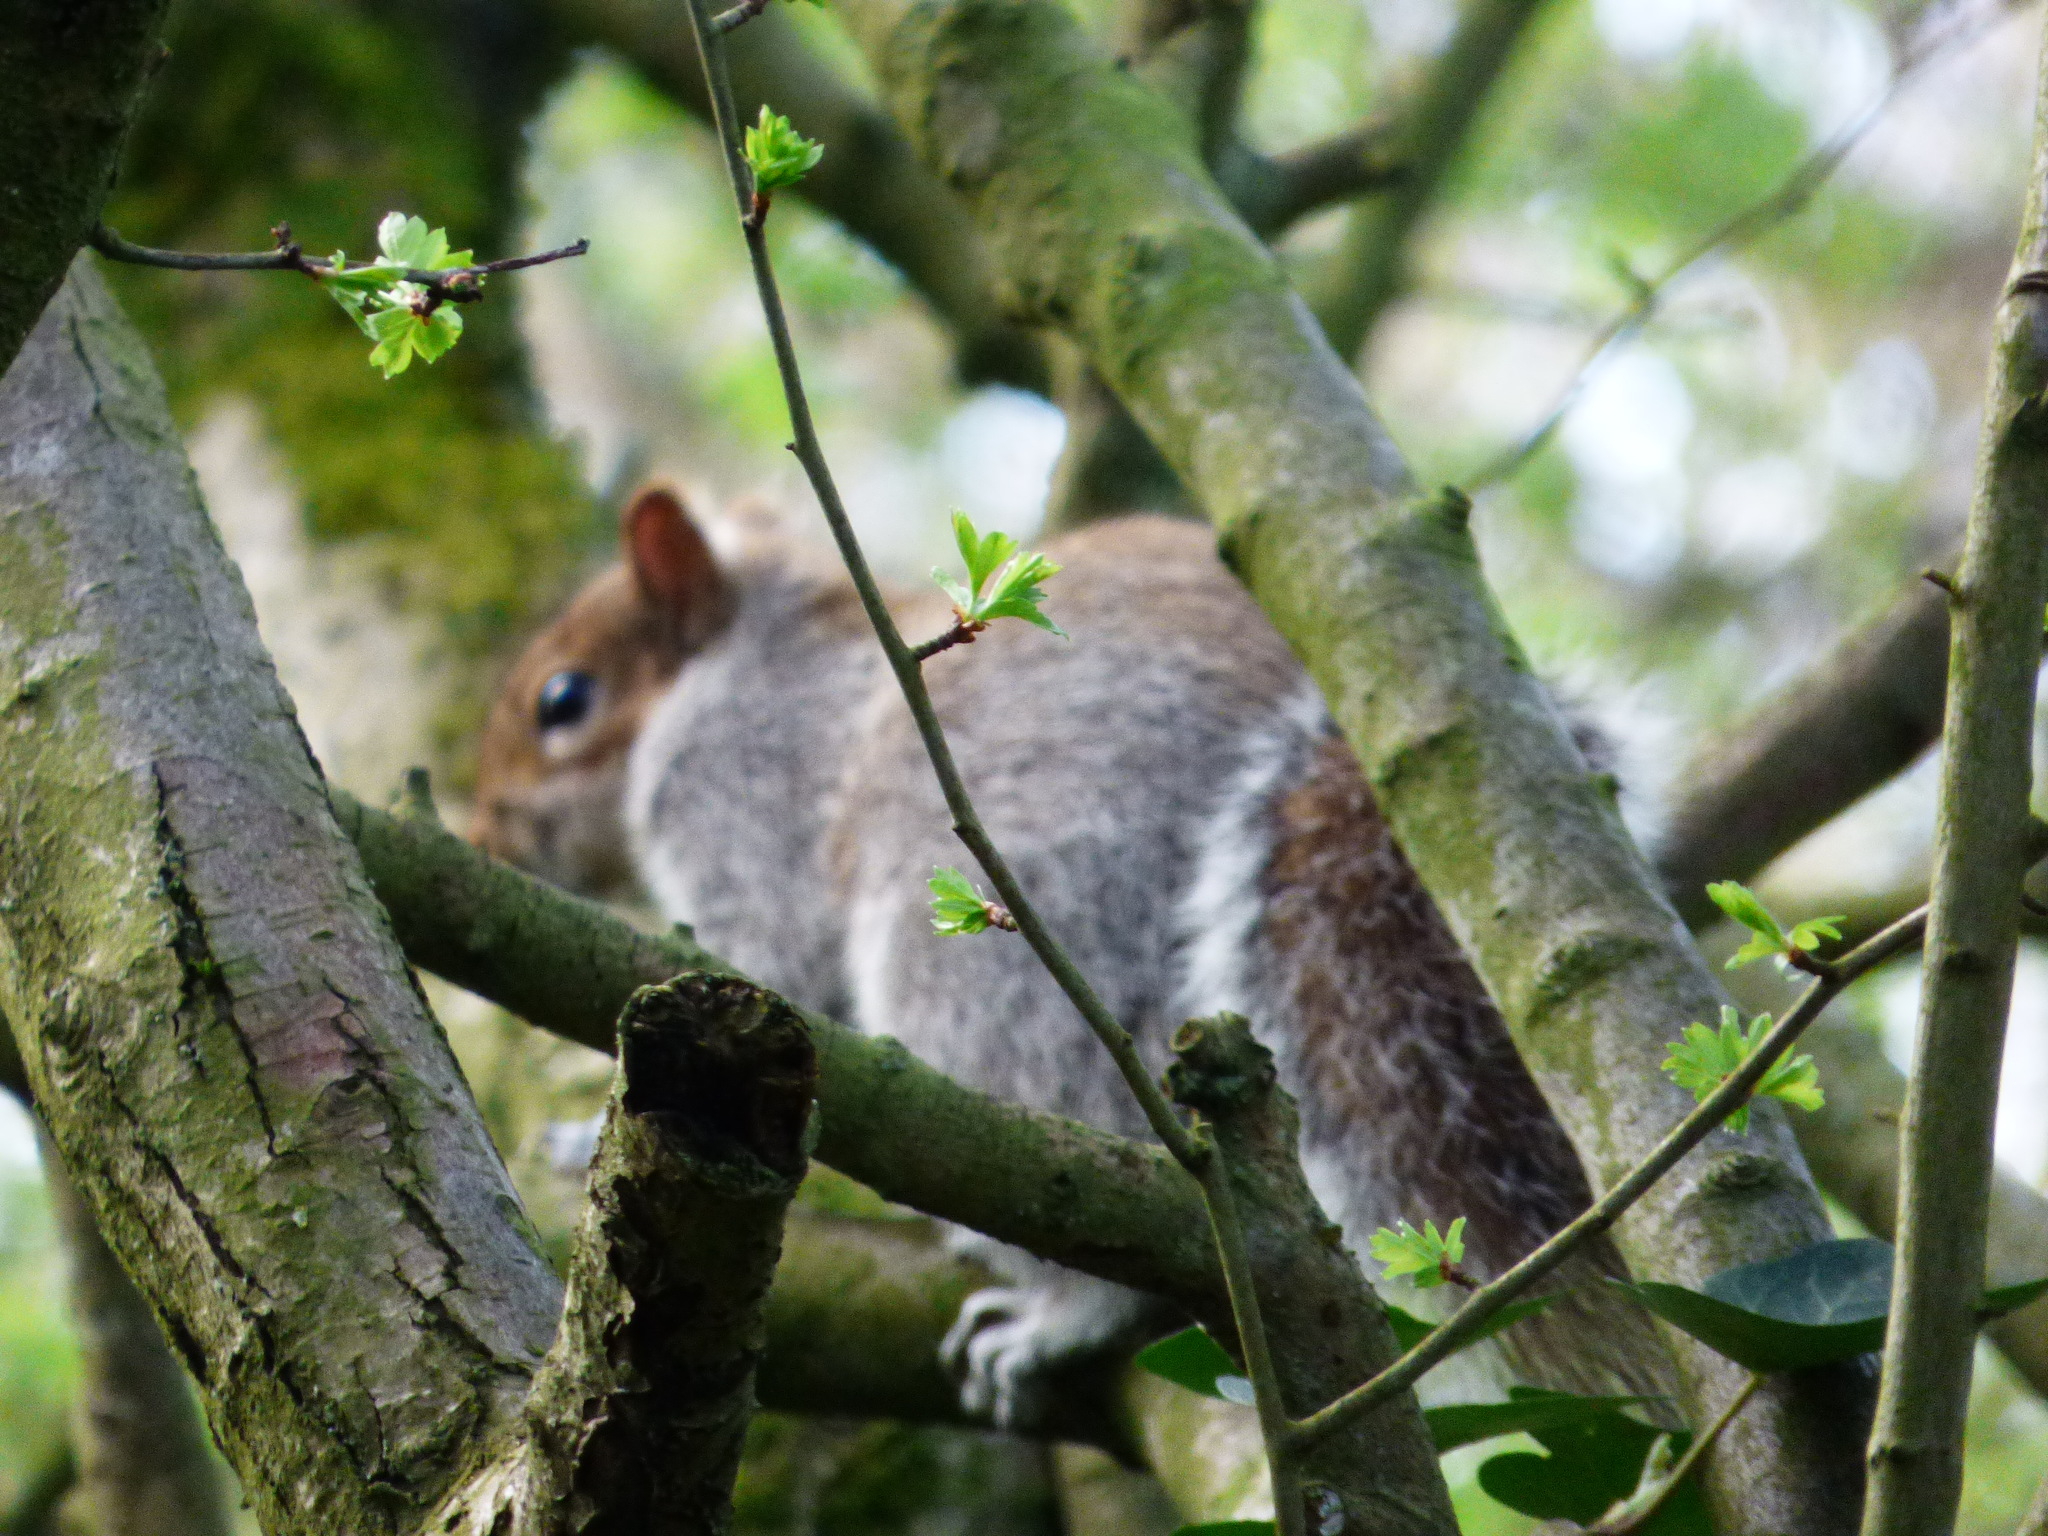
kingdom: Animalia
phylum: Chordata
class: Mammalia
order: Rodentia
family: Sciuridae
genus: Sciurus
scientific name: Sciurus carolinensis
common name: Eastern gray squirrel
